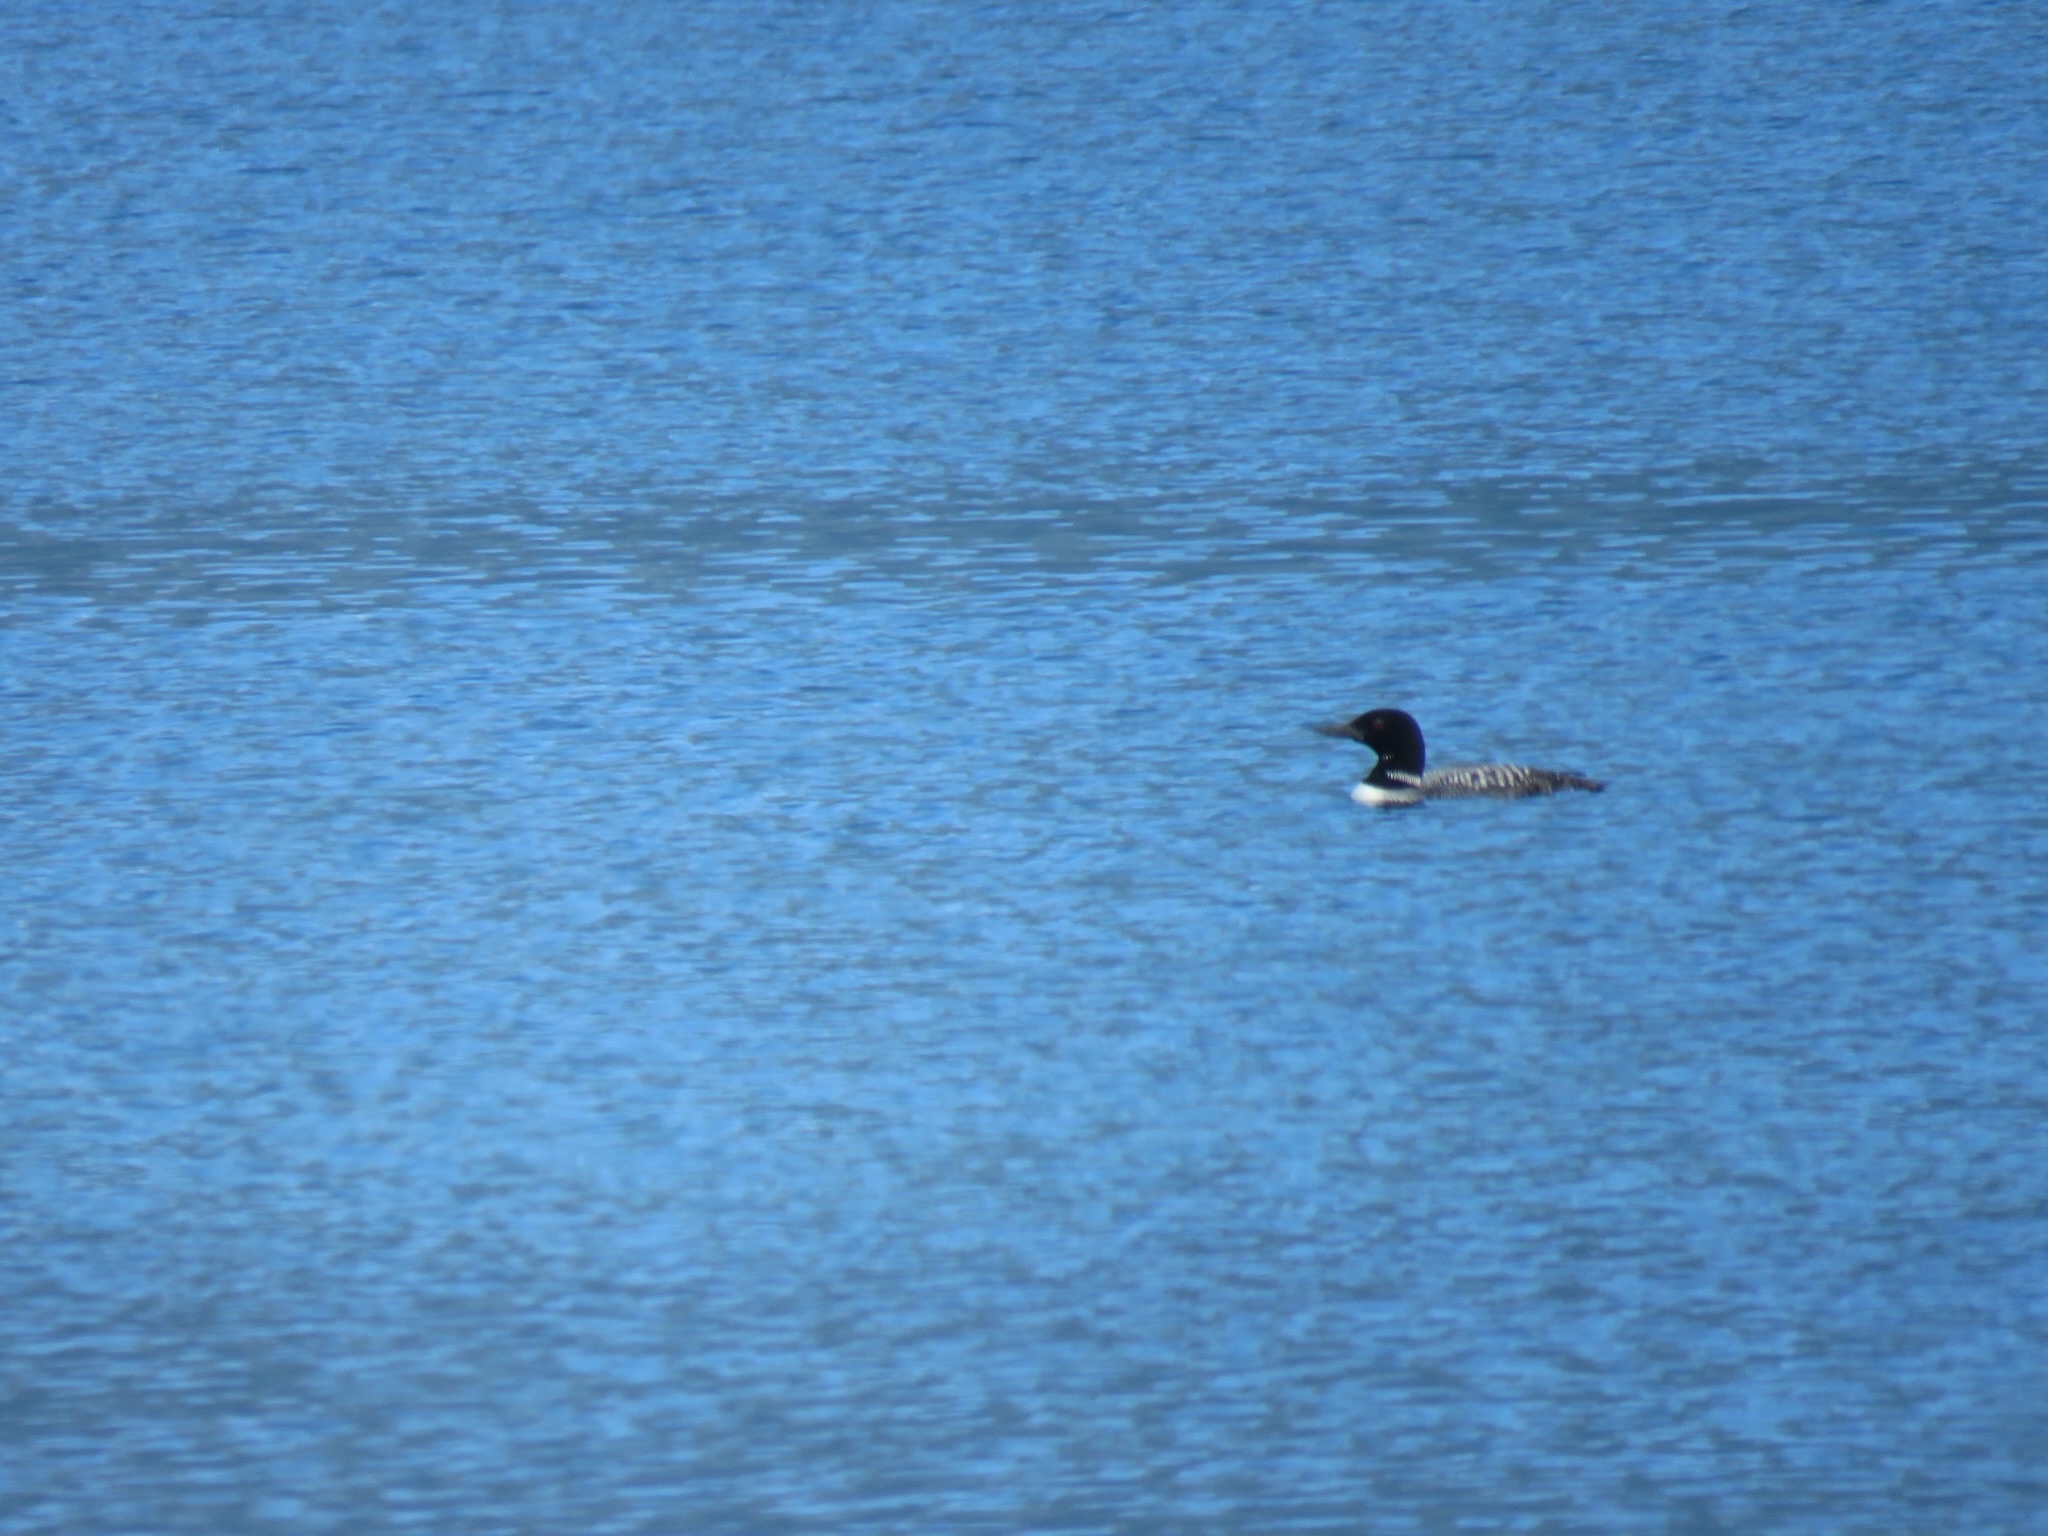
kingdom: Animalia
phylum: Chordata
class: Aves
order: Gaviiformes
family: Gaviidae
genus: Gavia
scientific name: Gavia immer
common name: Common loon
